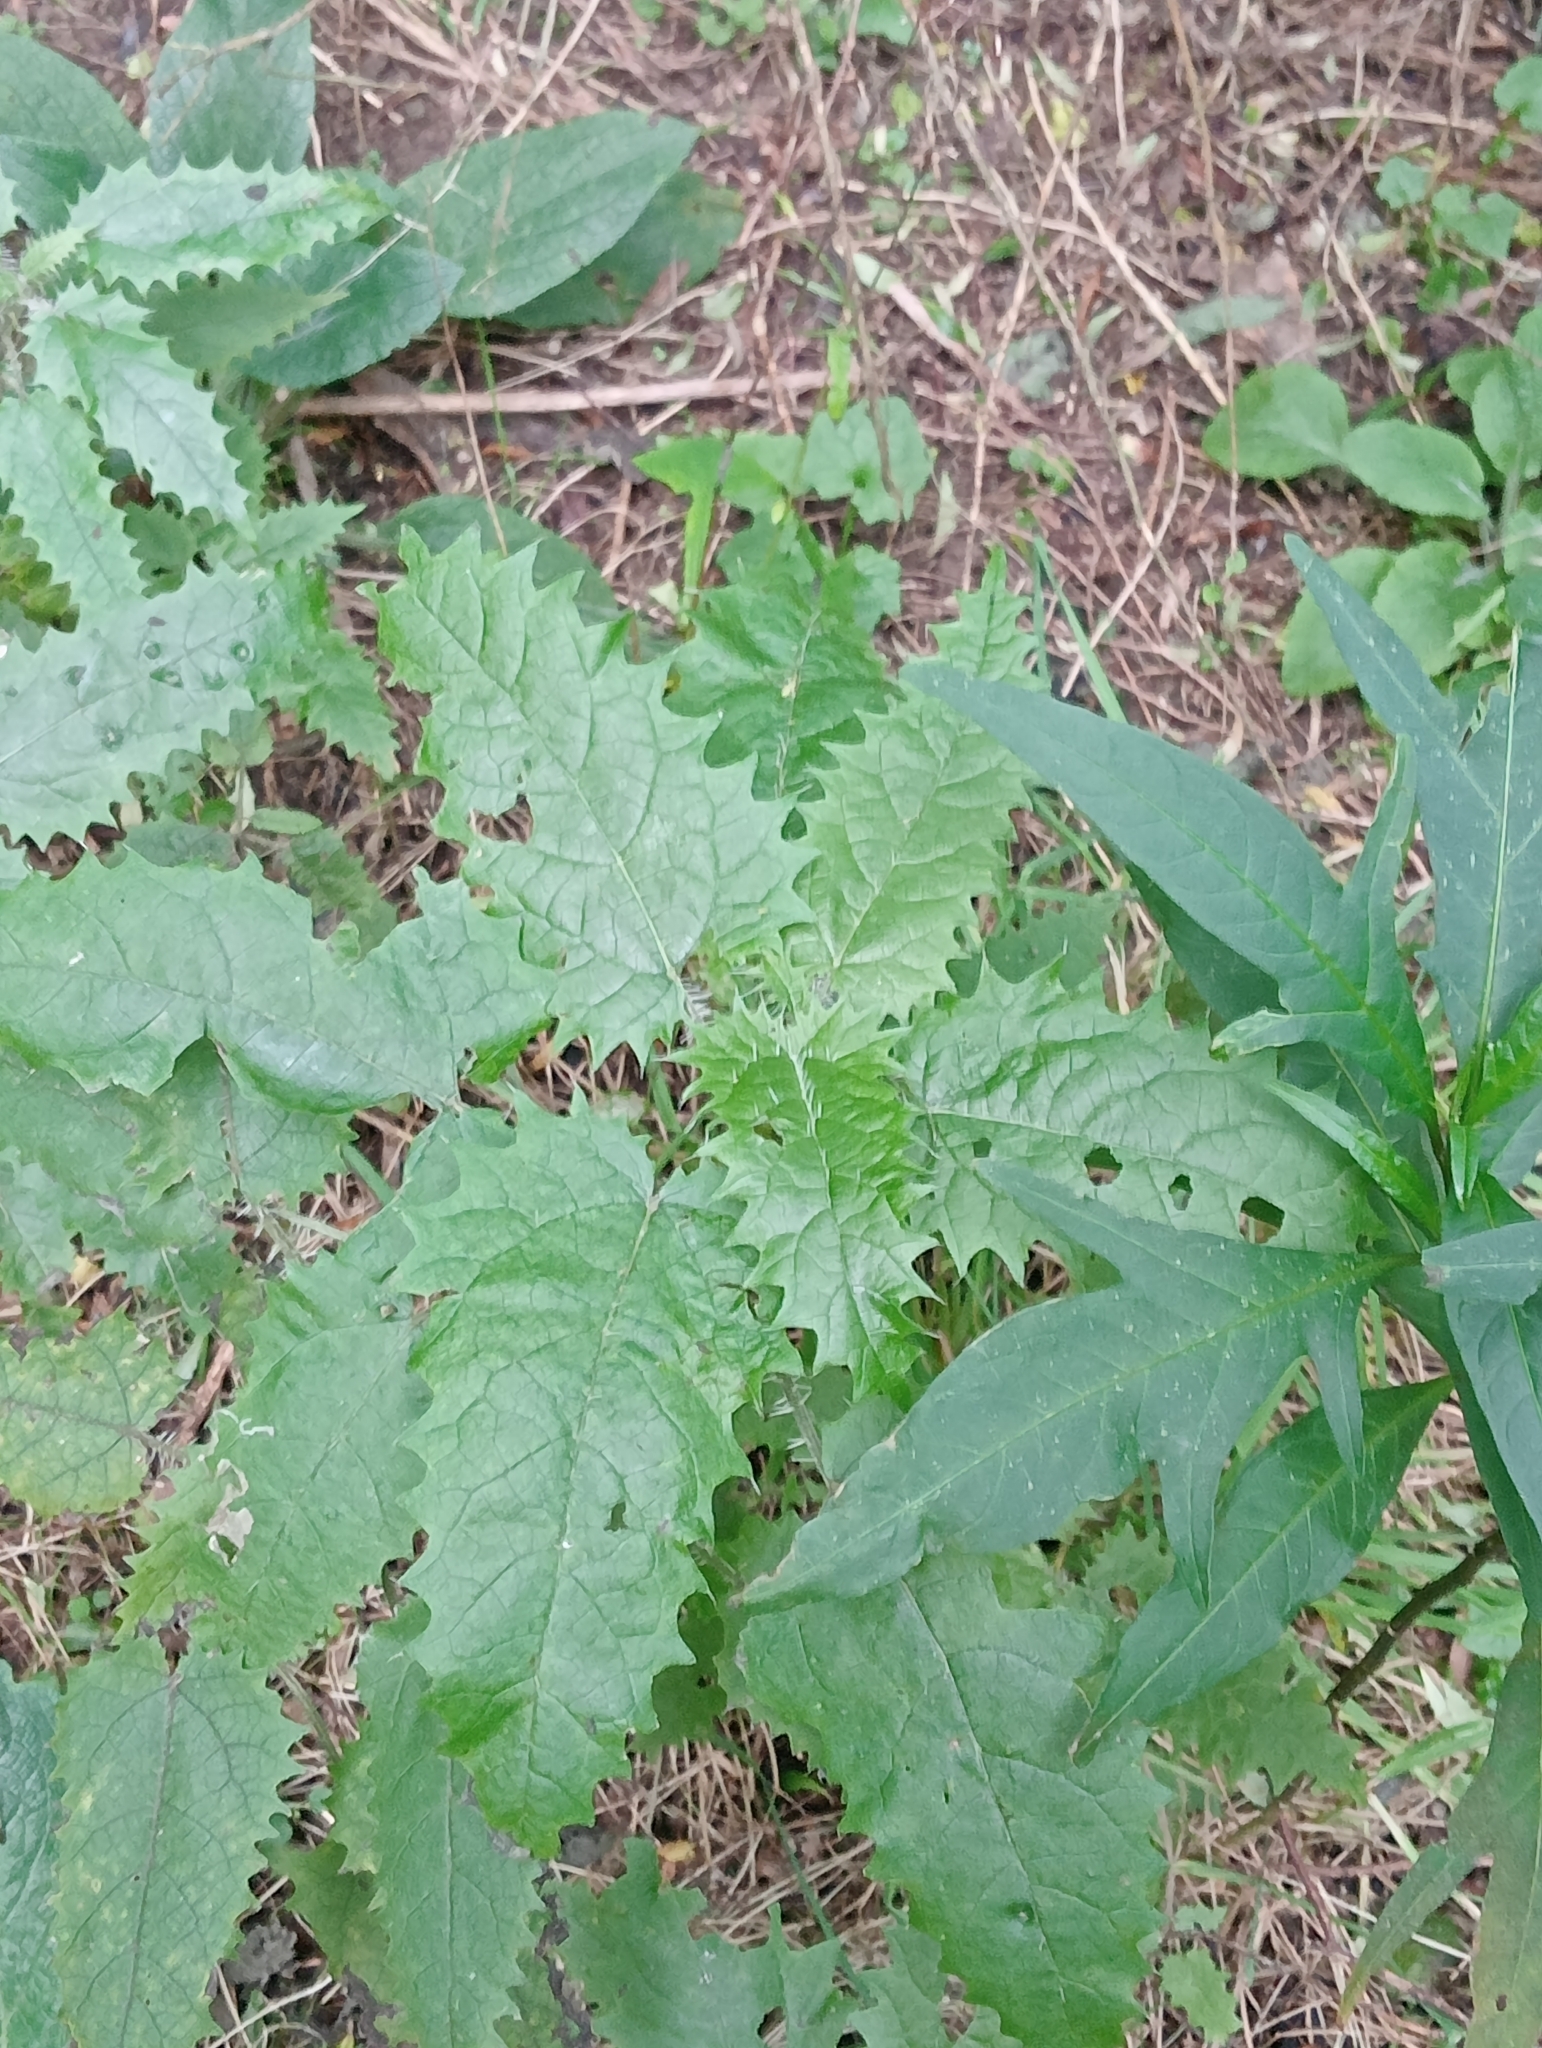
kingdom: Plantae
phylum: Tracheophyta
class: Magnoliopsida
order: Rosales
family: Urticaceae
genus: Urtica
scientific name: Urtica ferox
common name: Tree nettle
